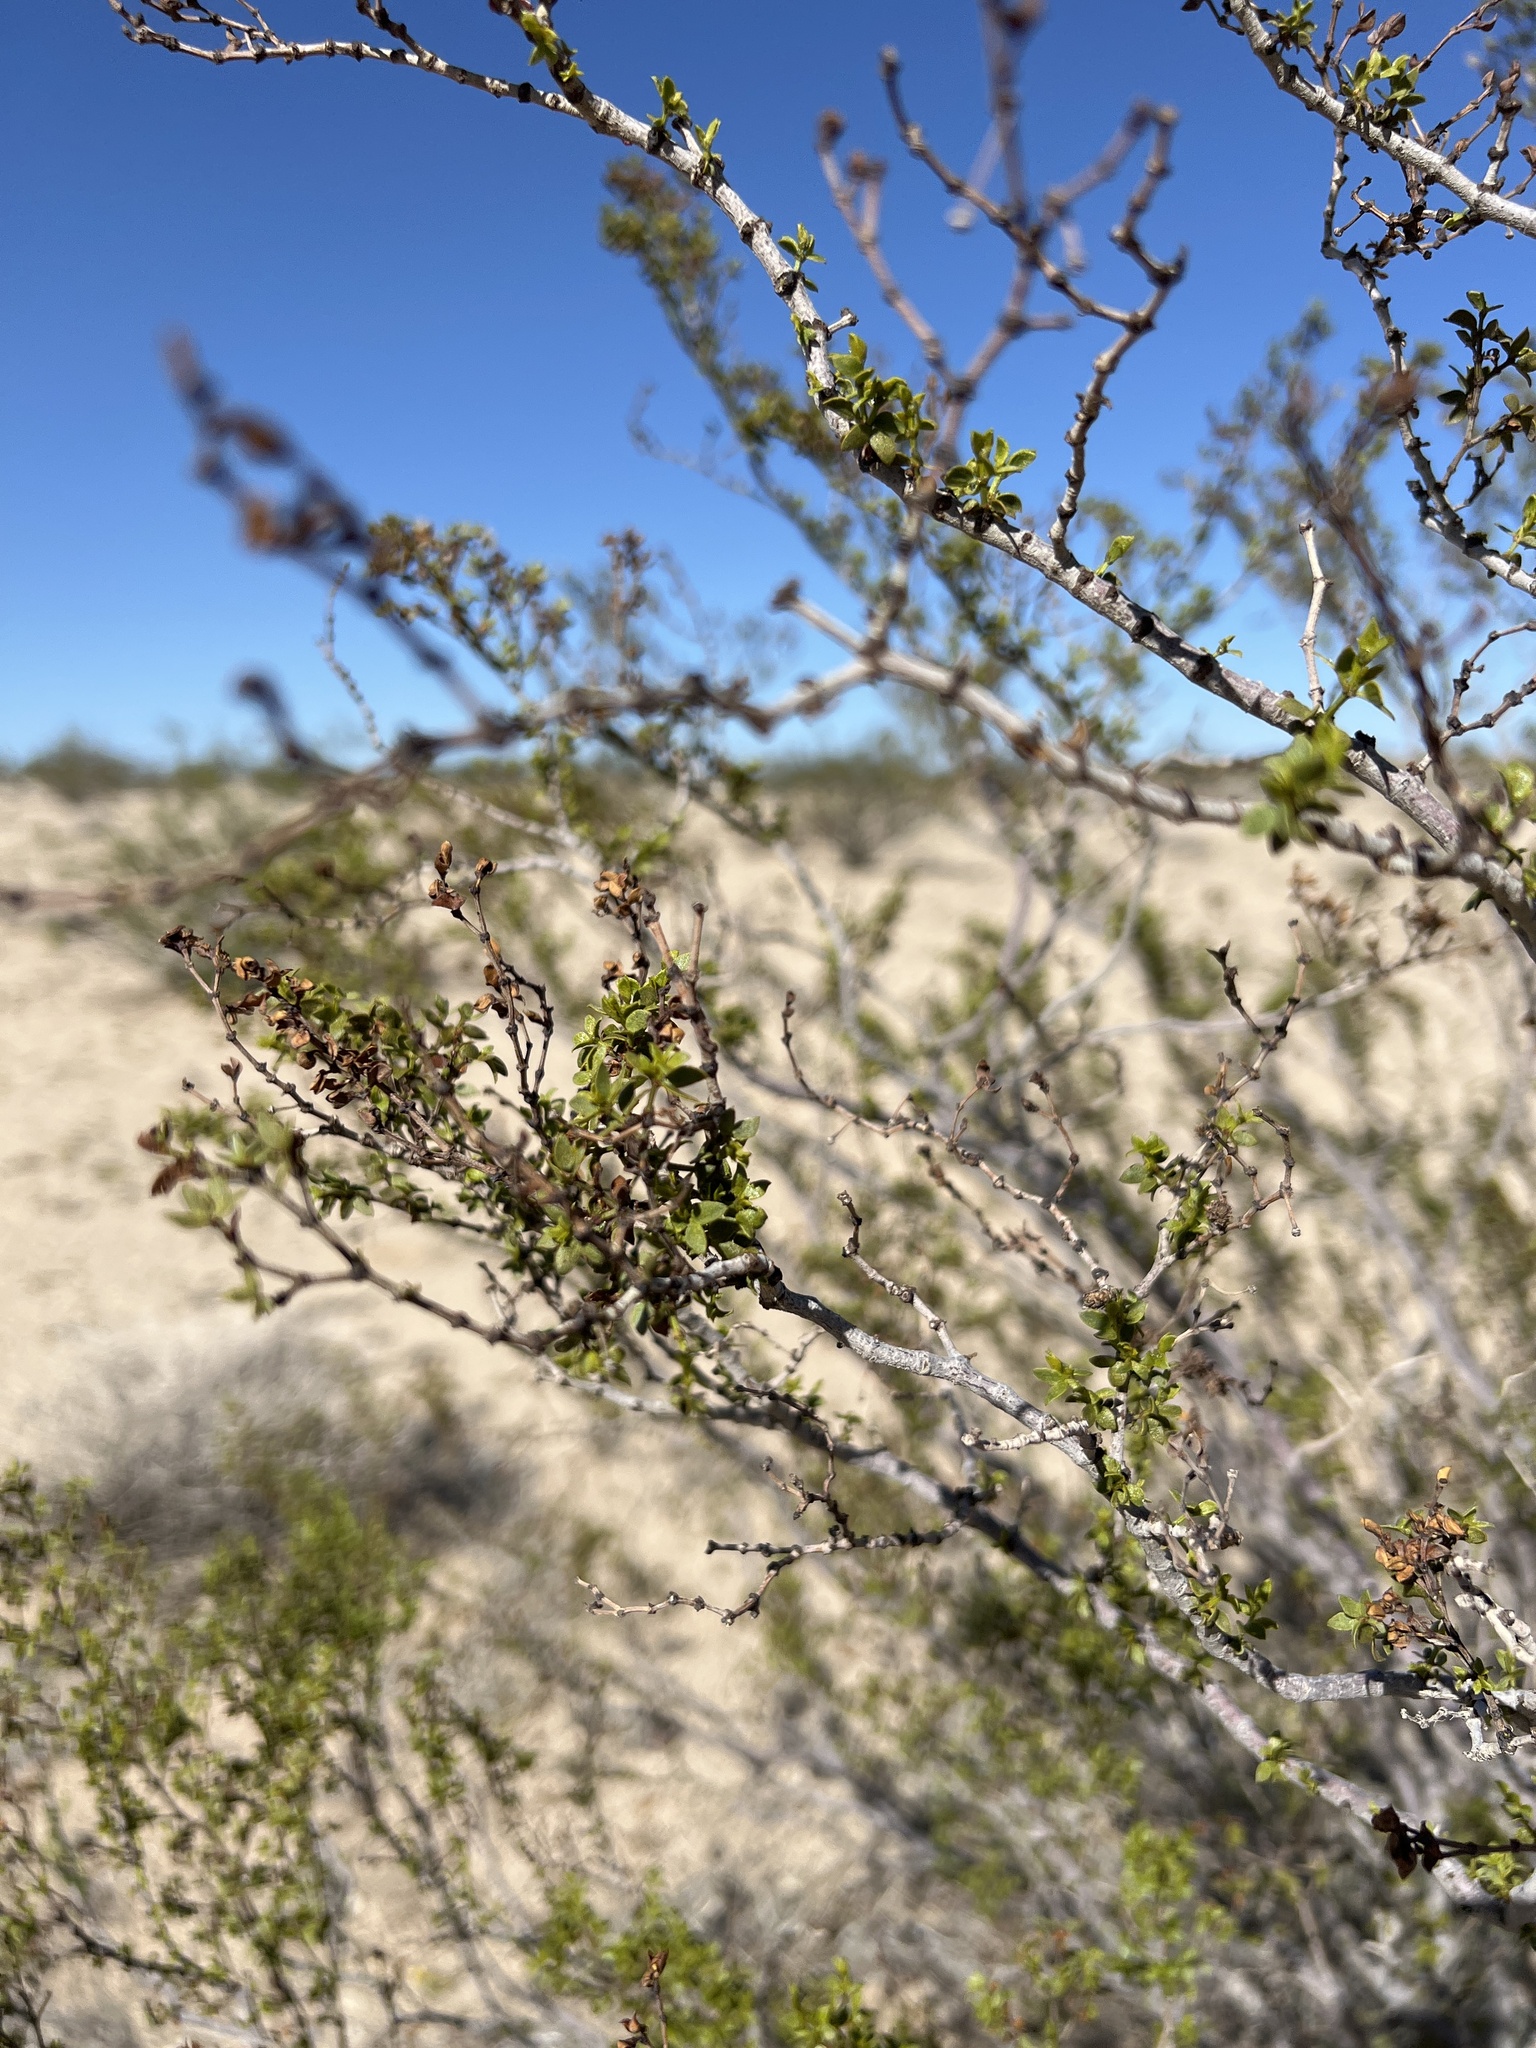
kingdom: Plantae
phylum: Tracheophyta
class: Magnoliopsida
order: Zygophyllales
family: Zygophyllaceae
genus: Larrea
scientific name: Larrea tridentata
